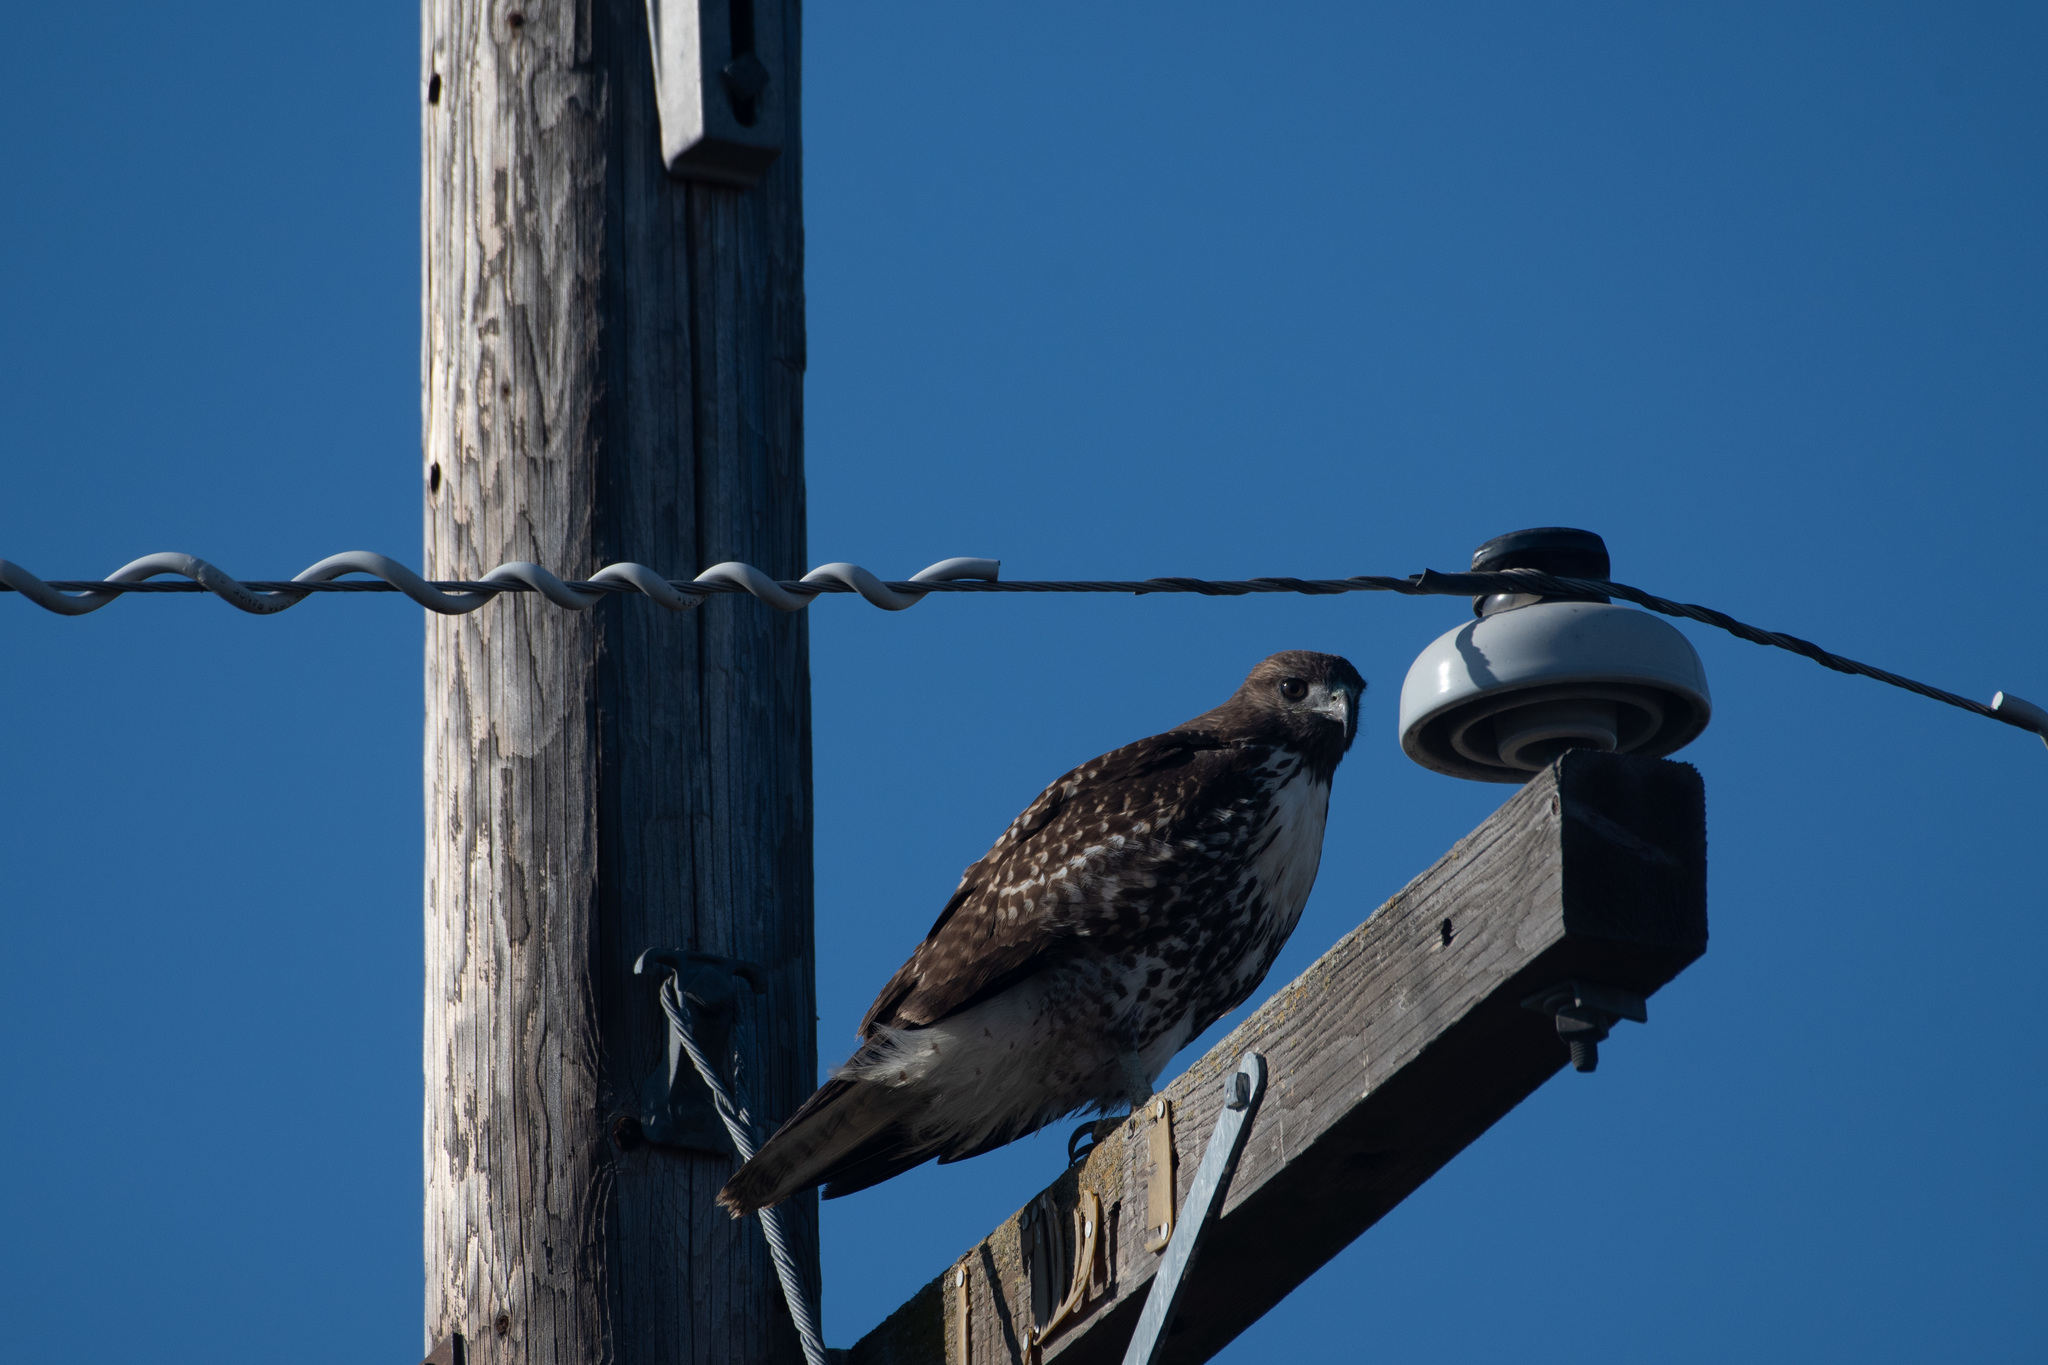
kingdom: Animalia
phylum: Chordata
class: Aves
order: Accipitriformes
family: Accipitridae
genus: Buteo
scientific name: Buteo jamaicensis
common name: Red-tailed hawk
